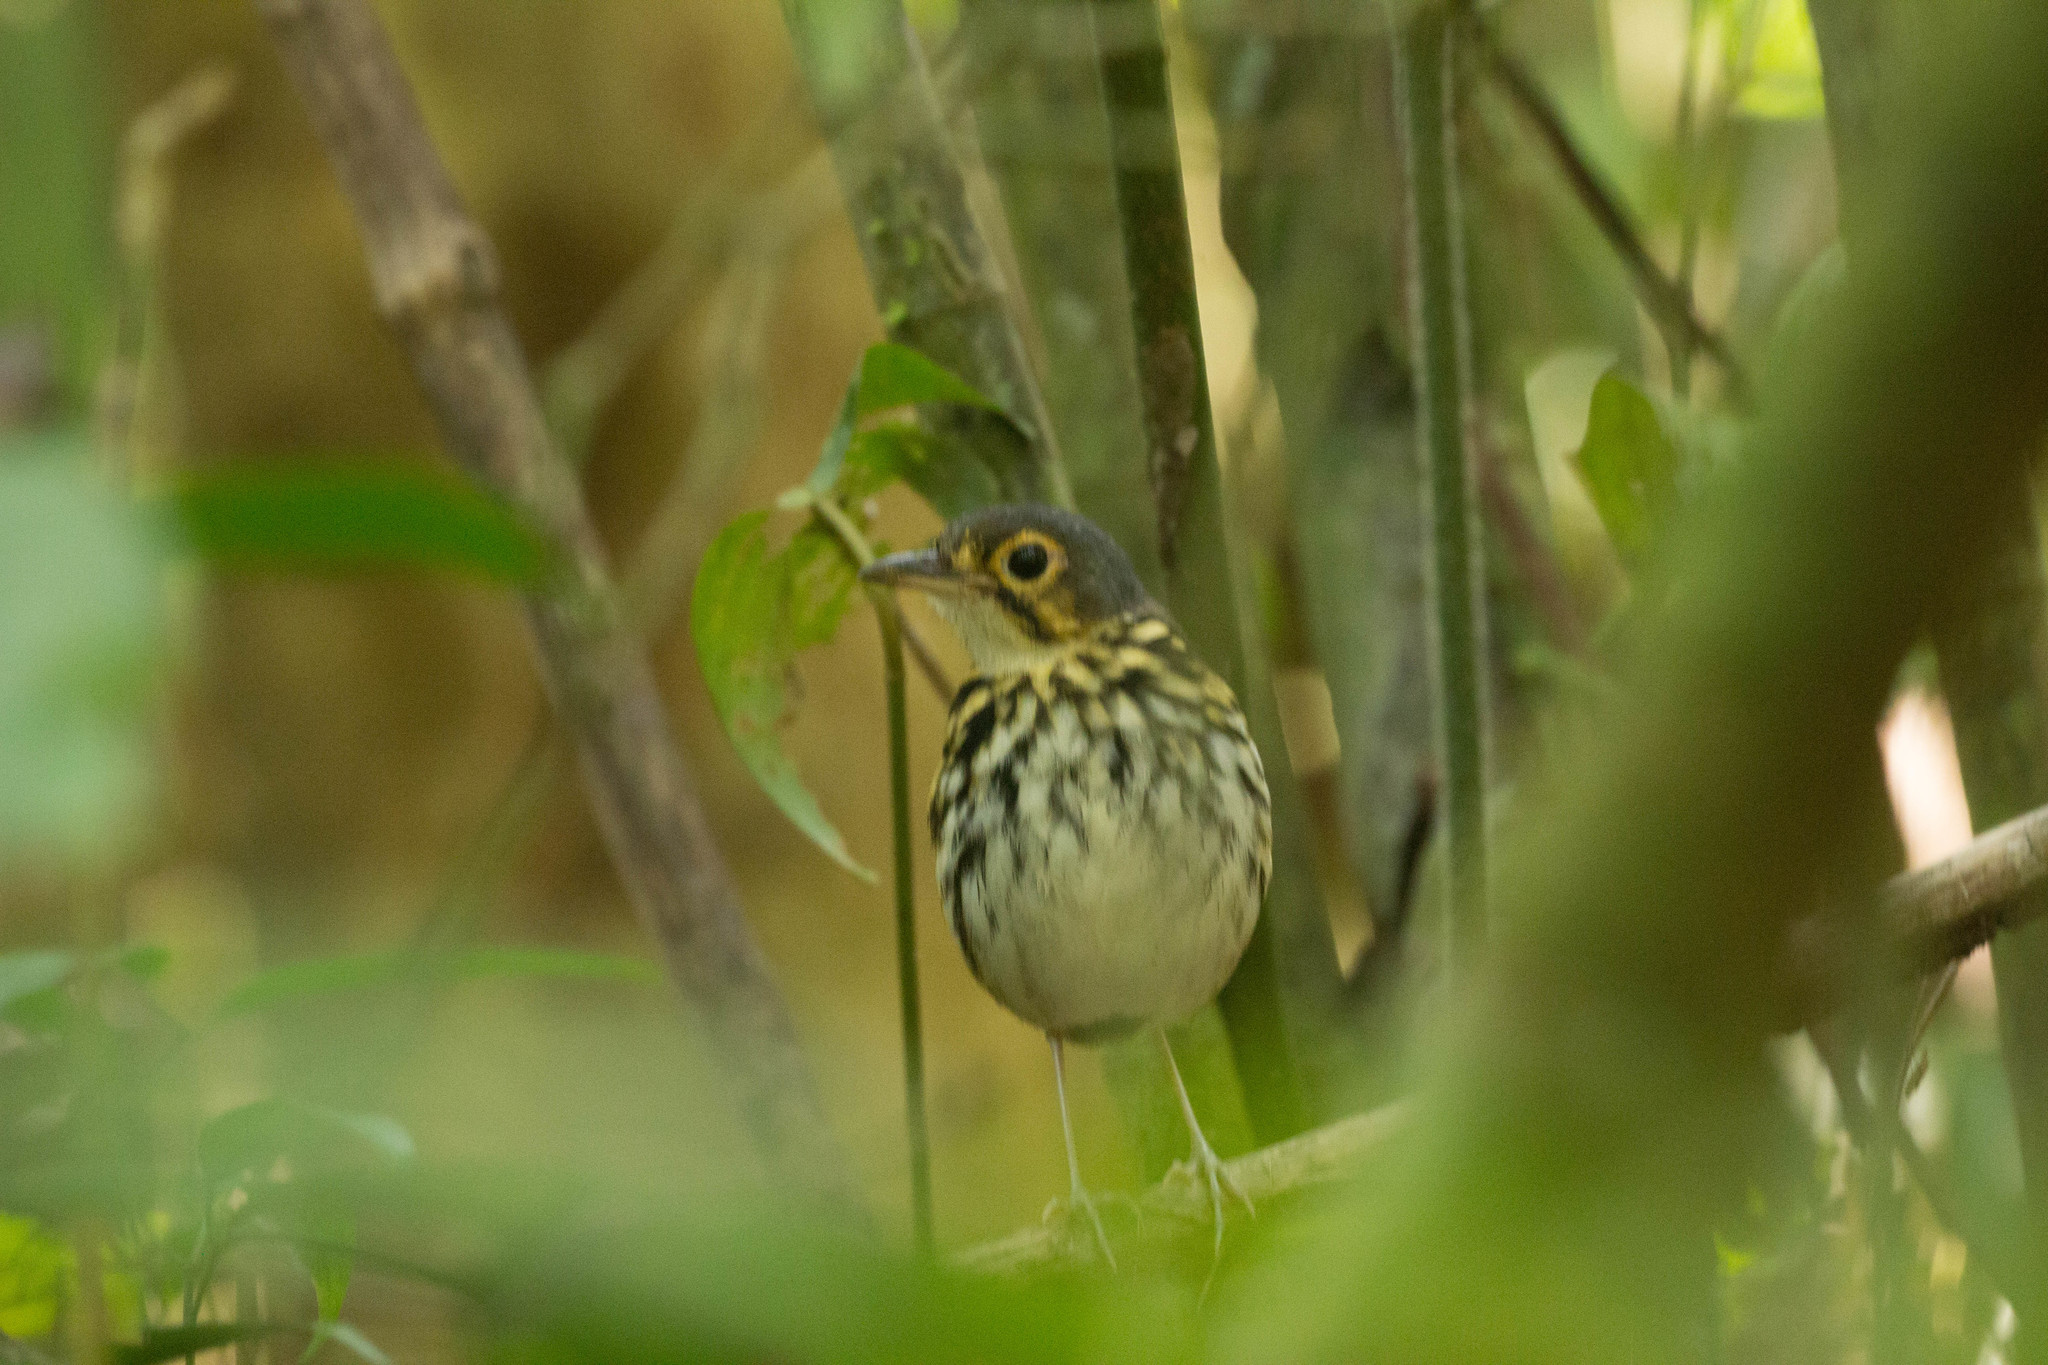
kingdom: Animalia
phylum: Chordata
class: Aves
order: Passeriformes
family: Grallariidae
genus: Hylopezus
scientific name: Hylopezus perspicillatus
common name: Streak-chested antpitta
